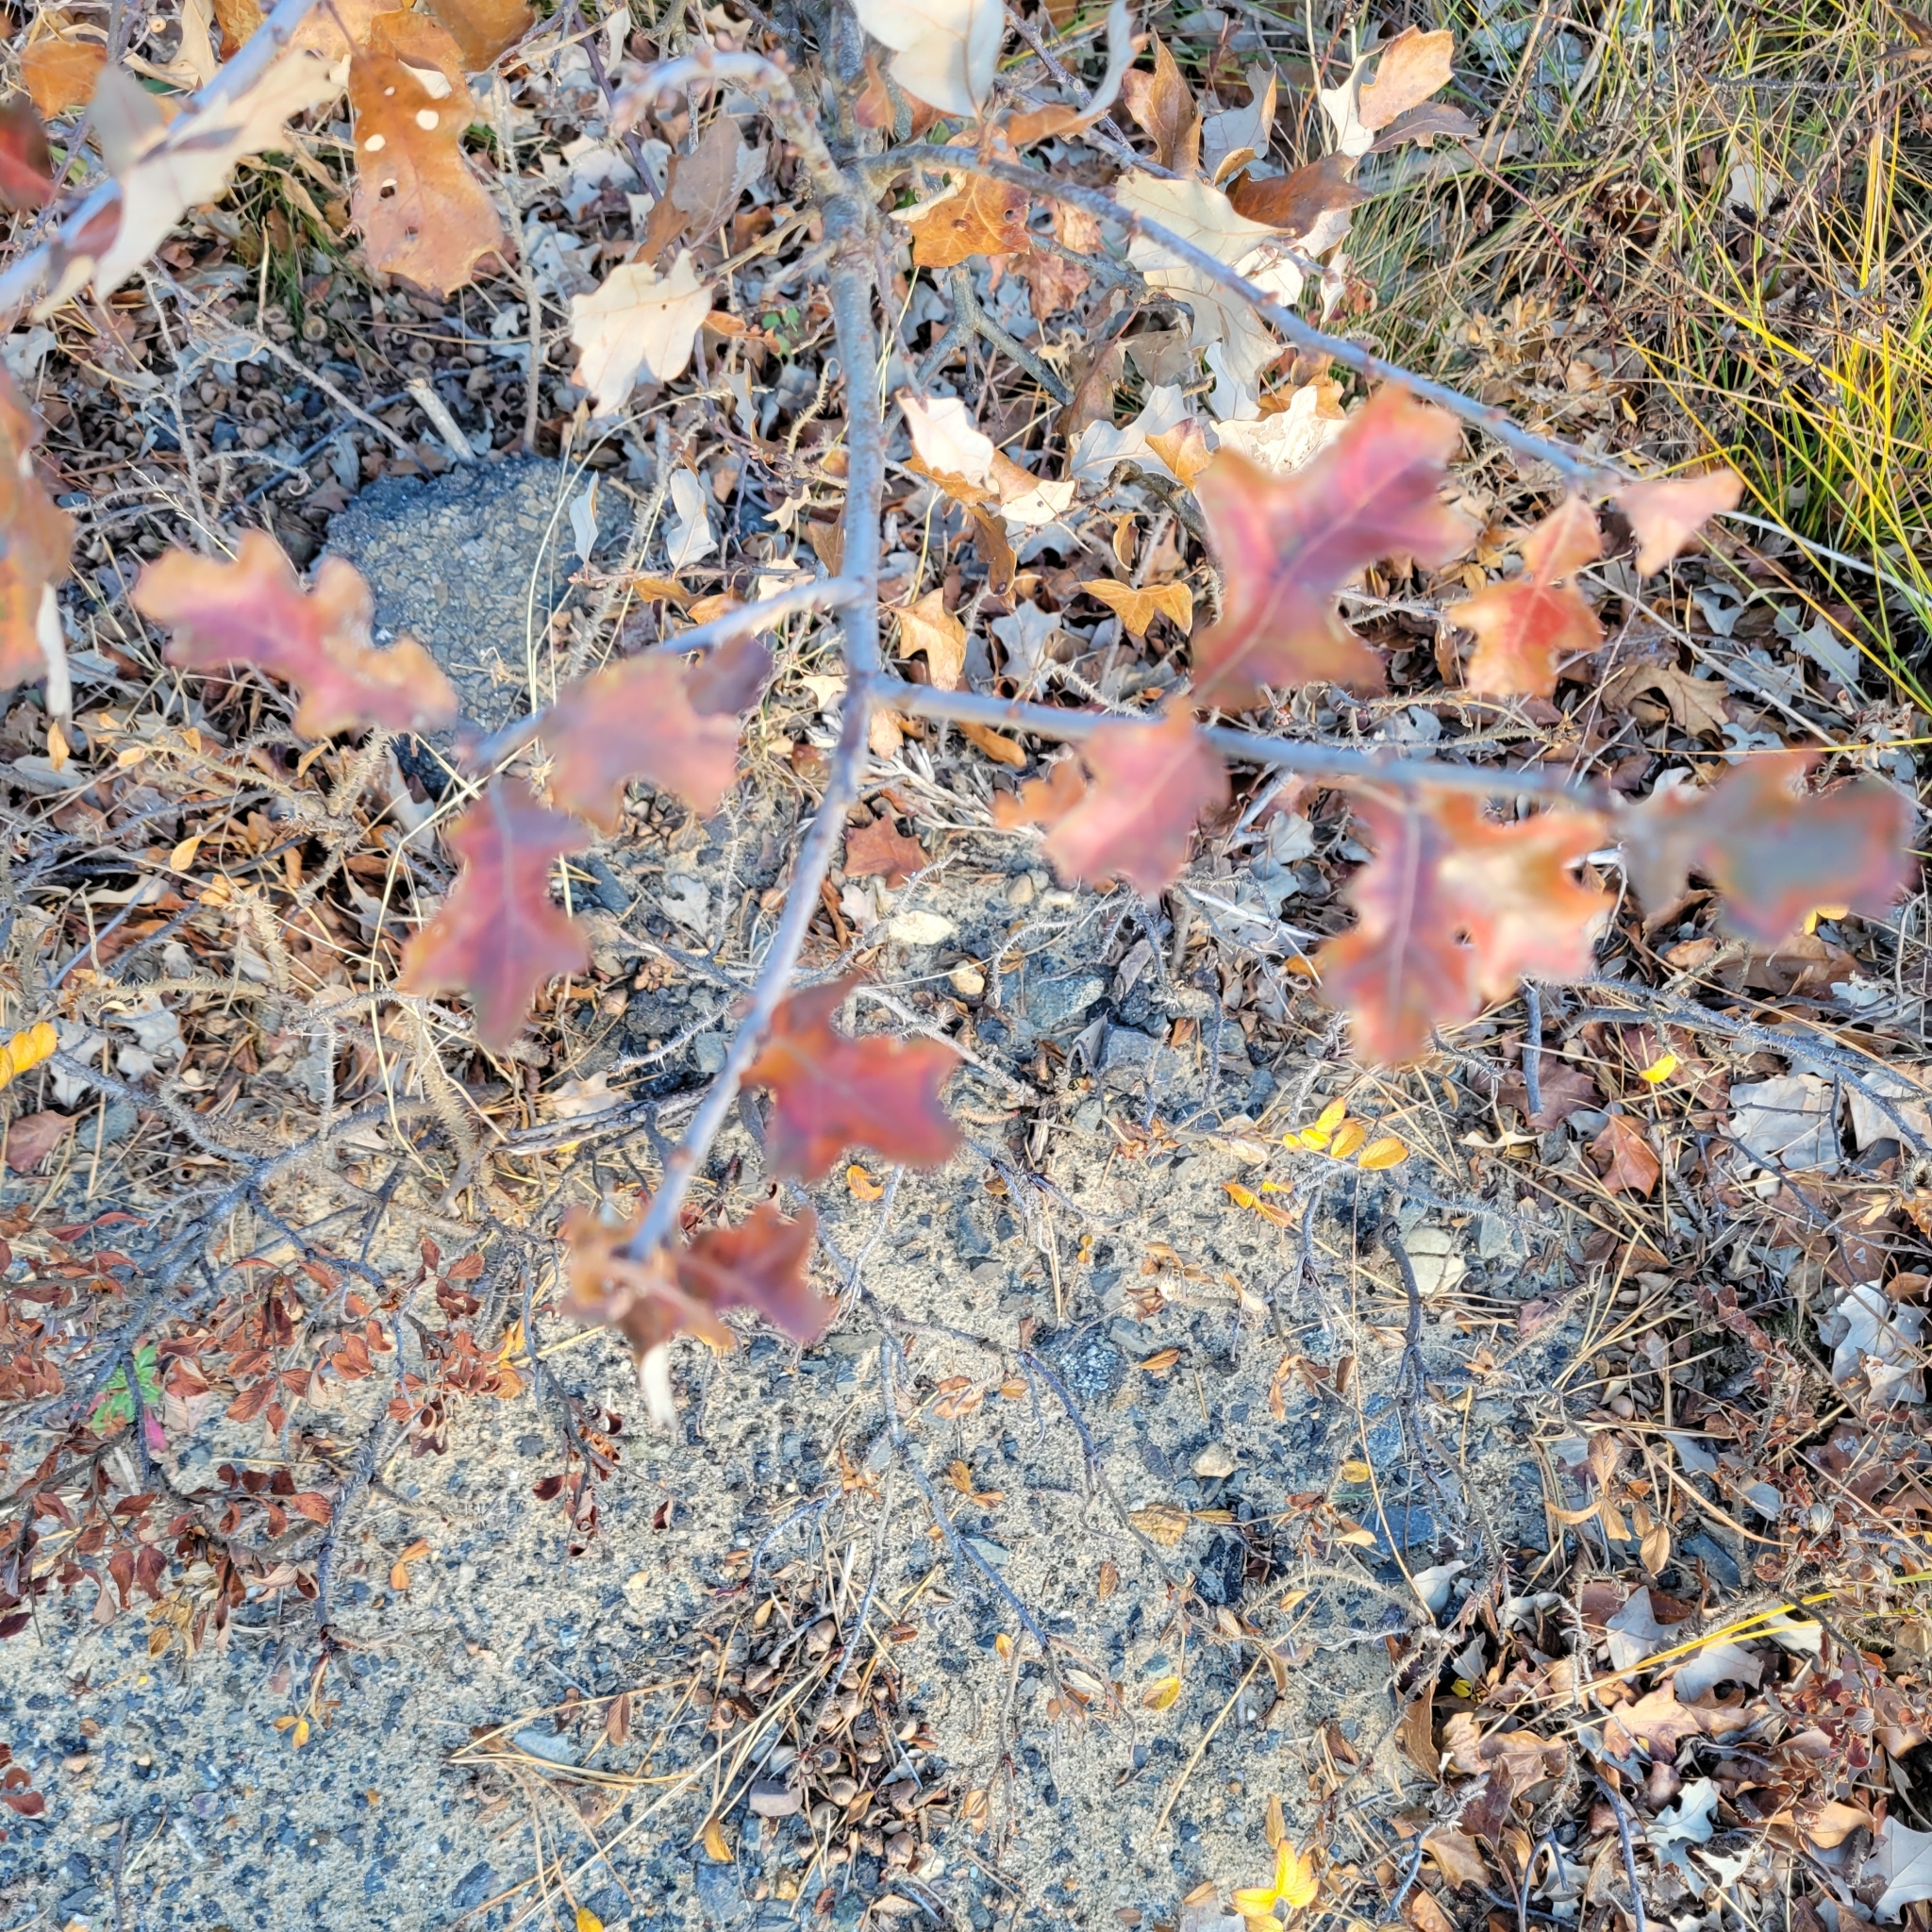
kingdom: Plantae
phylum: Tracheophyta
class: Magnoliopsida
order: Fagales
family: Fagaceae
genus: Quercus
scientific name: Quercus ilicifolia
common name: Bear oak
